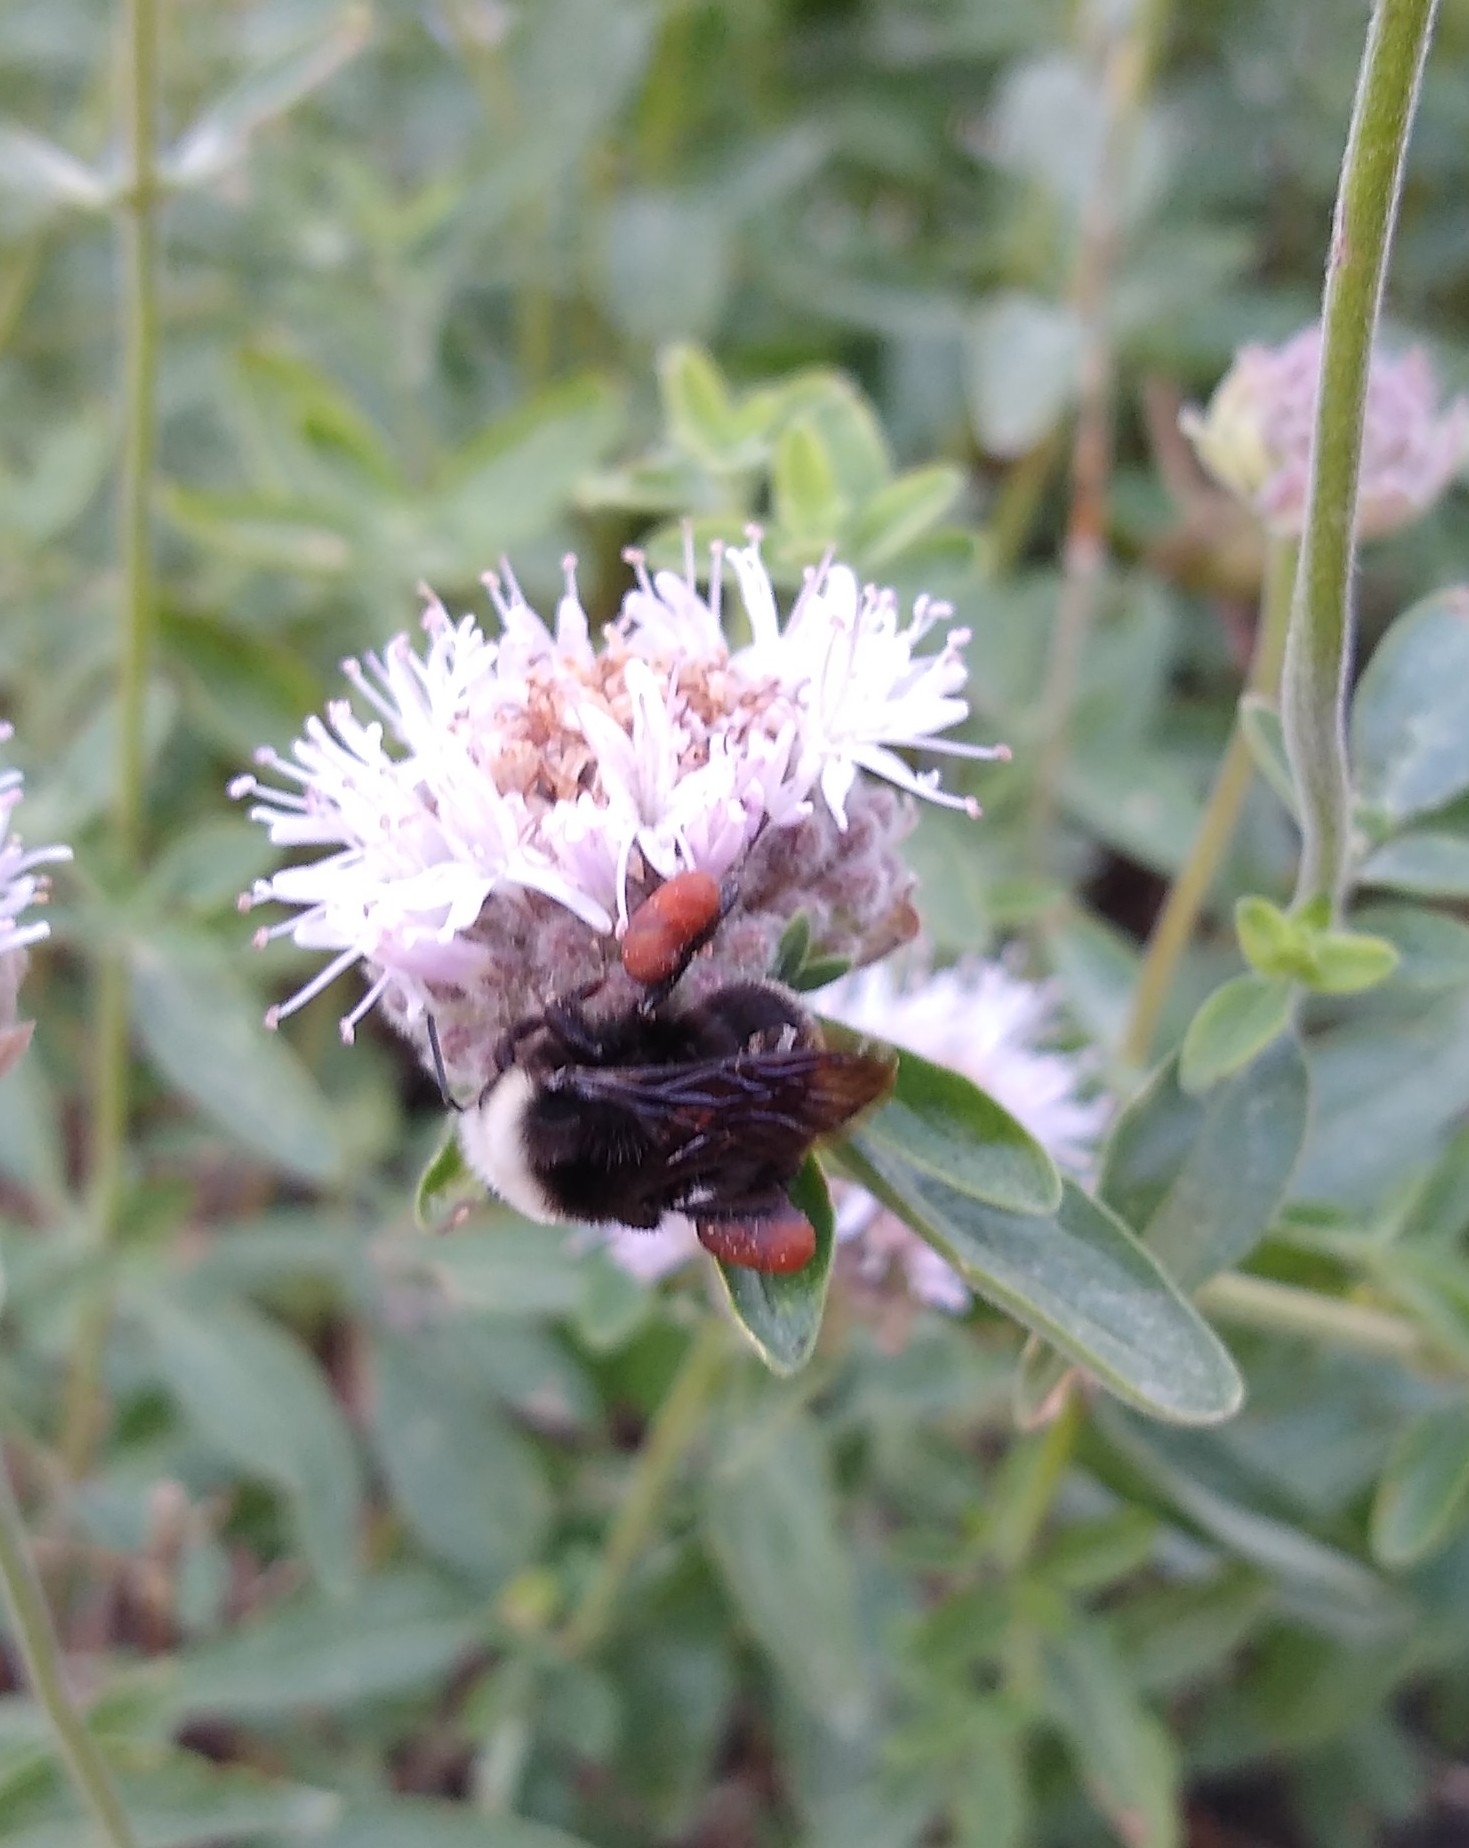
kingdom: Animalia
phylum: Arthropoda
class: Insecta
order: Hymenoptera
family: Apidae
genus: Bombus
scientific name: Bombus vosnesenskii
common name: Vosnesensky bumble bee
